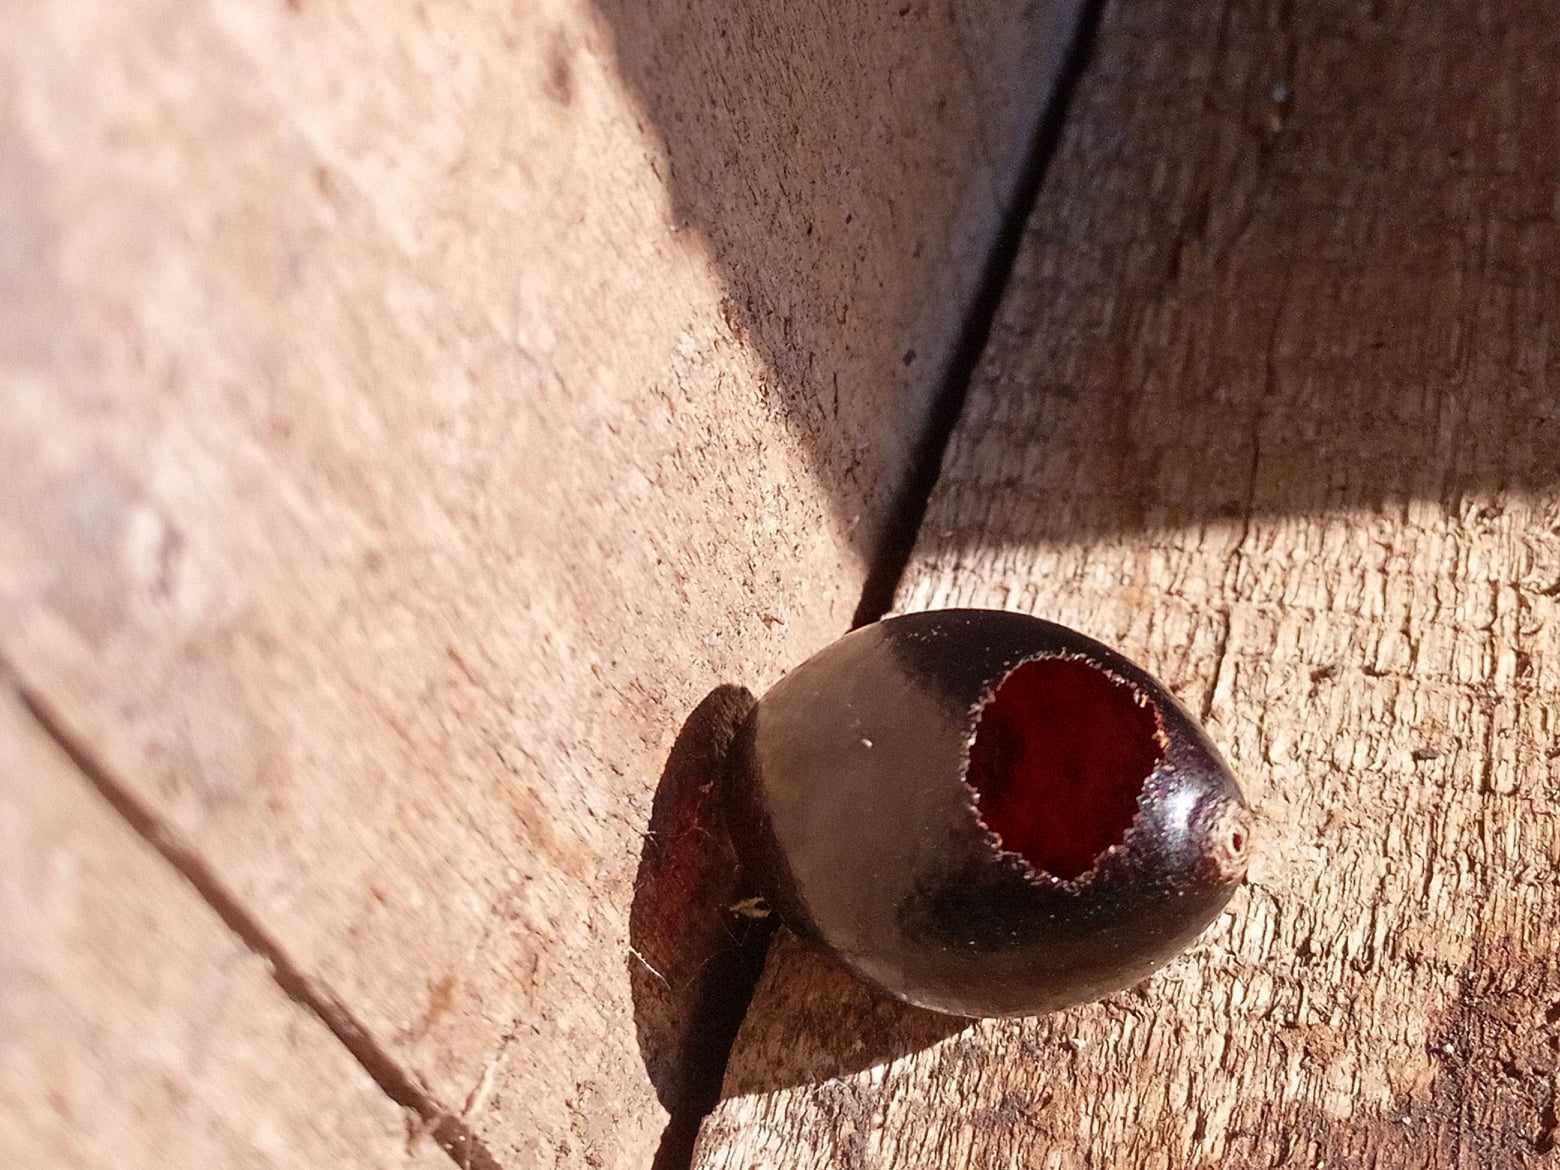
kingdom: Animalia
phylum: Arthropoda
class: Insecta
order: Hymenoptera
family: Masaridae
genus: Polochrum
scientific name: Polochrum repandum
